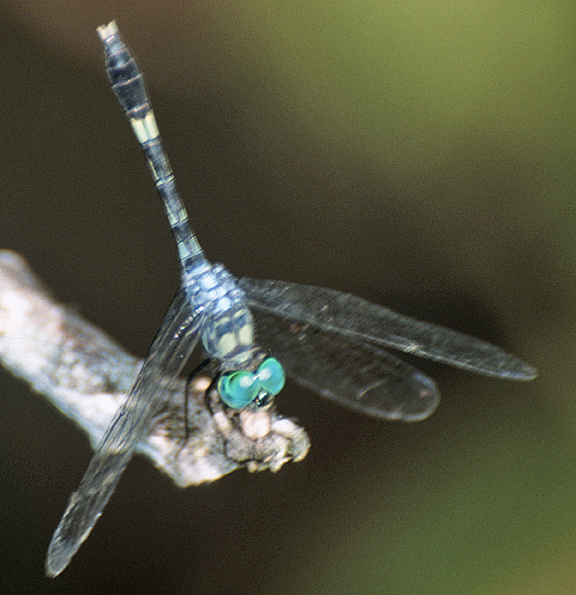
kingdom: Animalia
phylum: Arthropoda
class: Insecta
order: Odonata
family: Libellulidae
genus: Micrathyria
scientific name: Micrathyria romani
